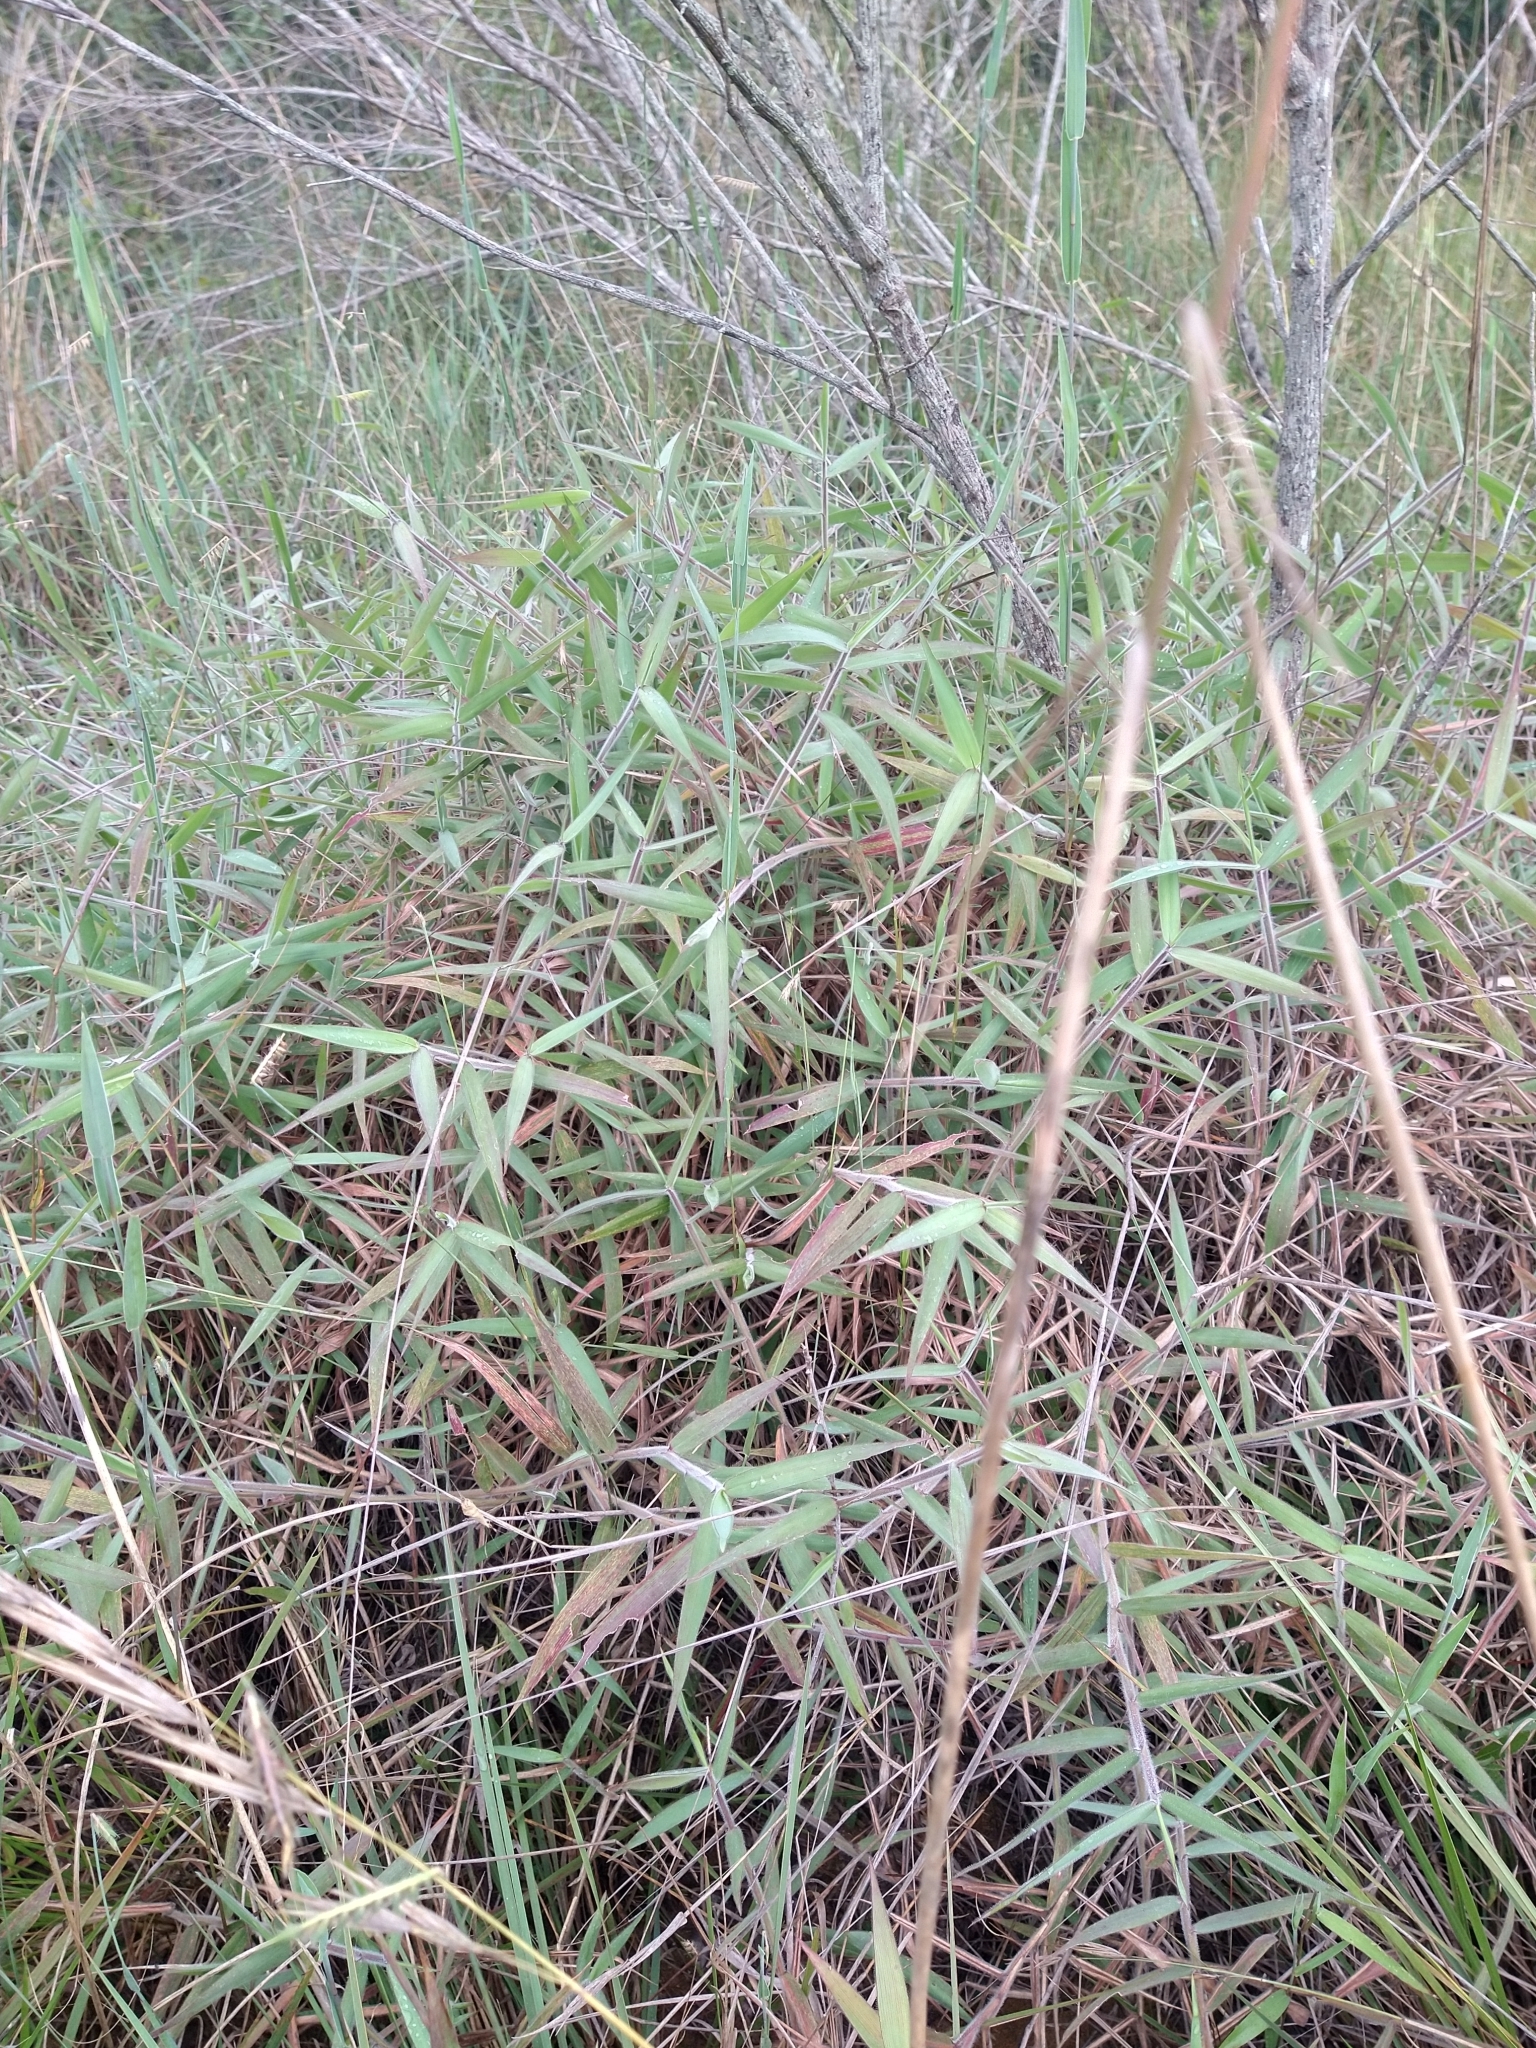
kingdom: Plantae
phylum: Tracheophyta
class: Liliopsida
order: Poales
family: Poaceae
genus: Melinis
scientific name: Melinis minutiflora
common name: Molassesgrass
